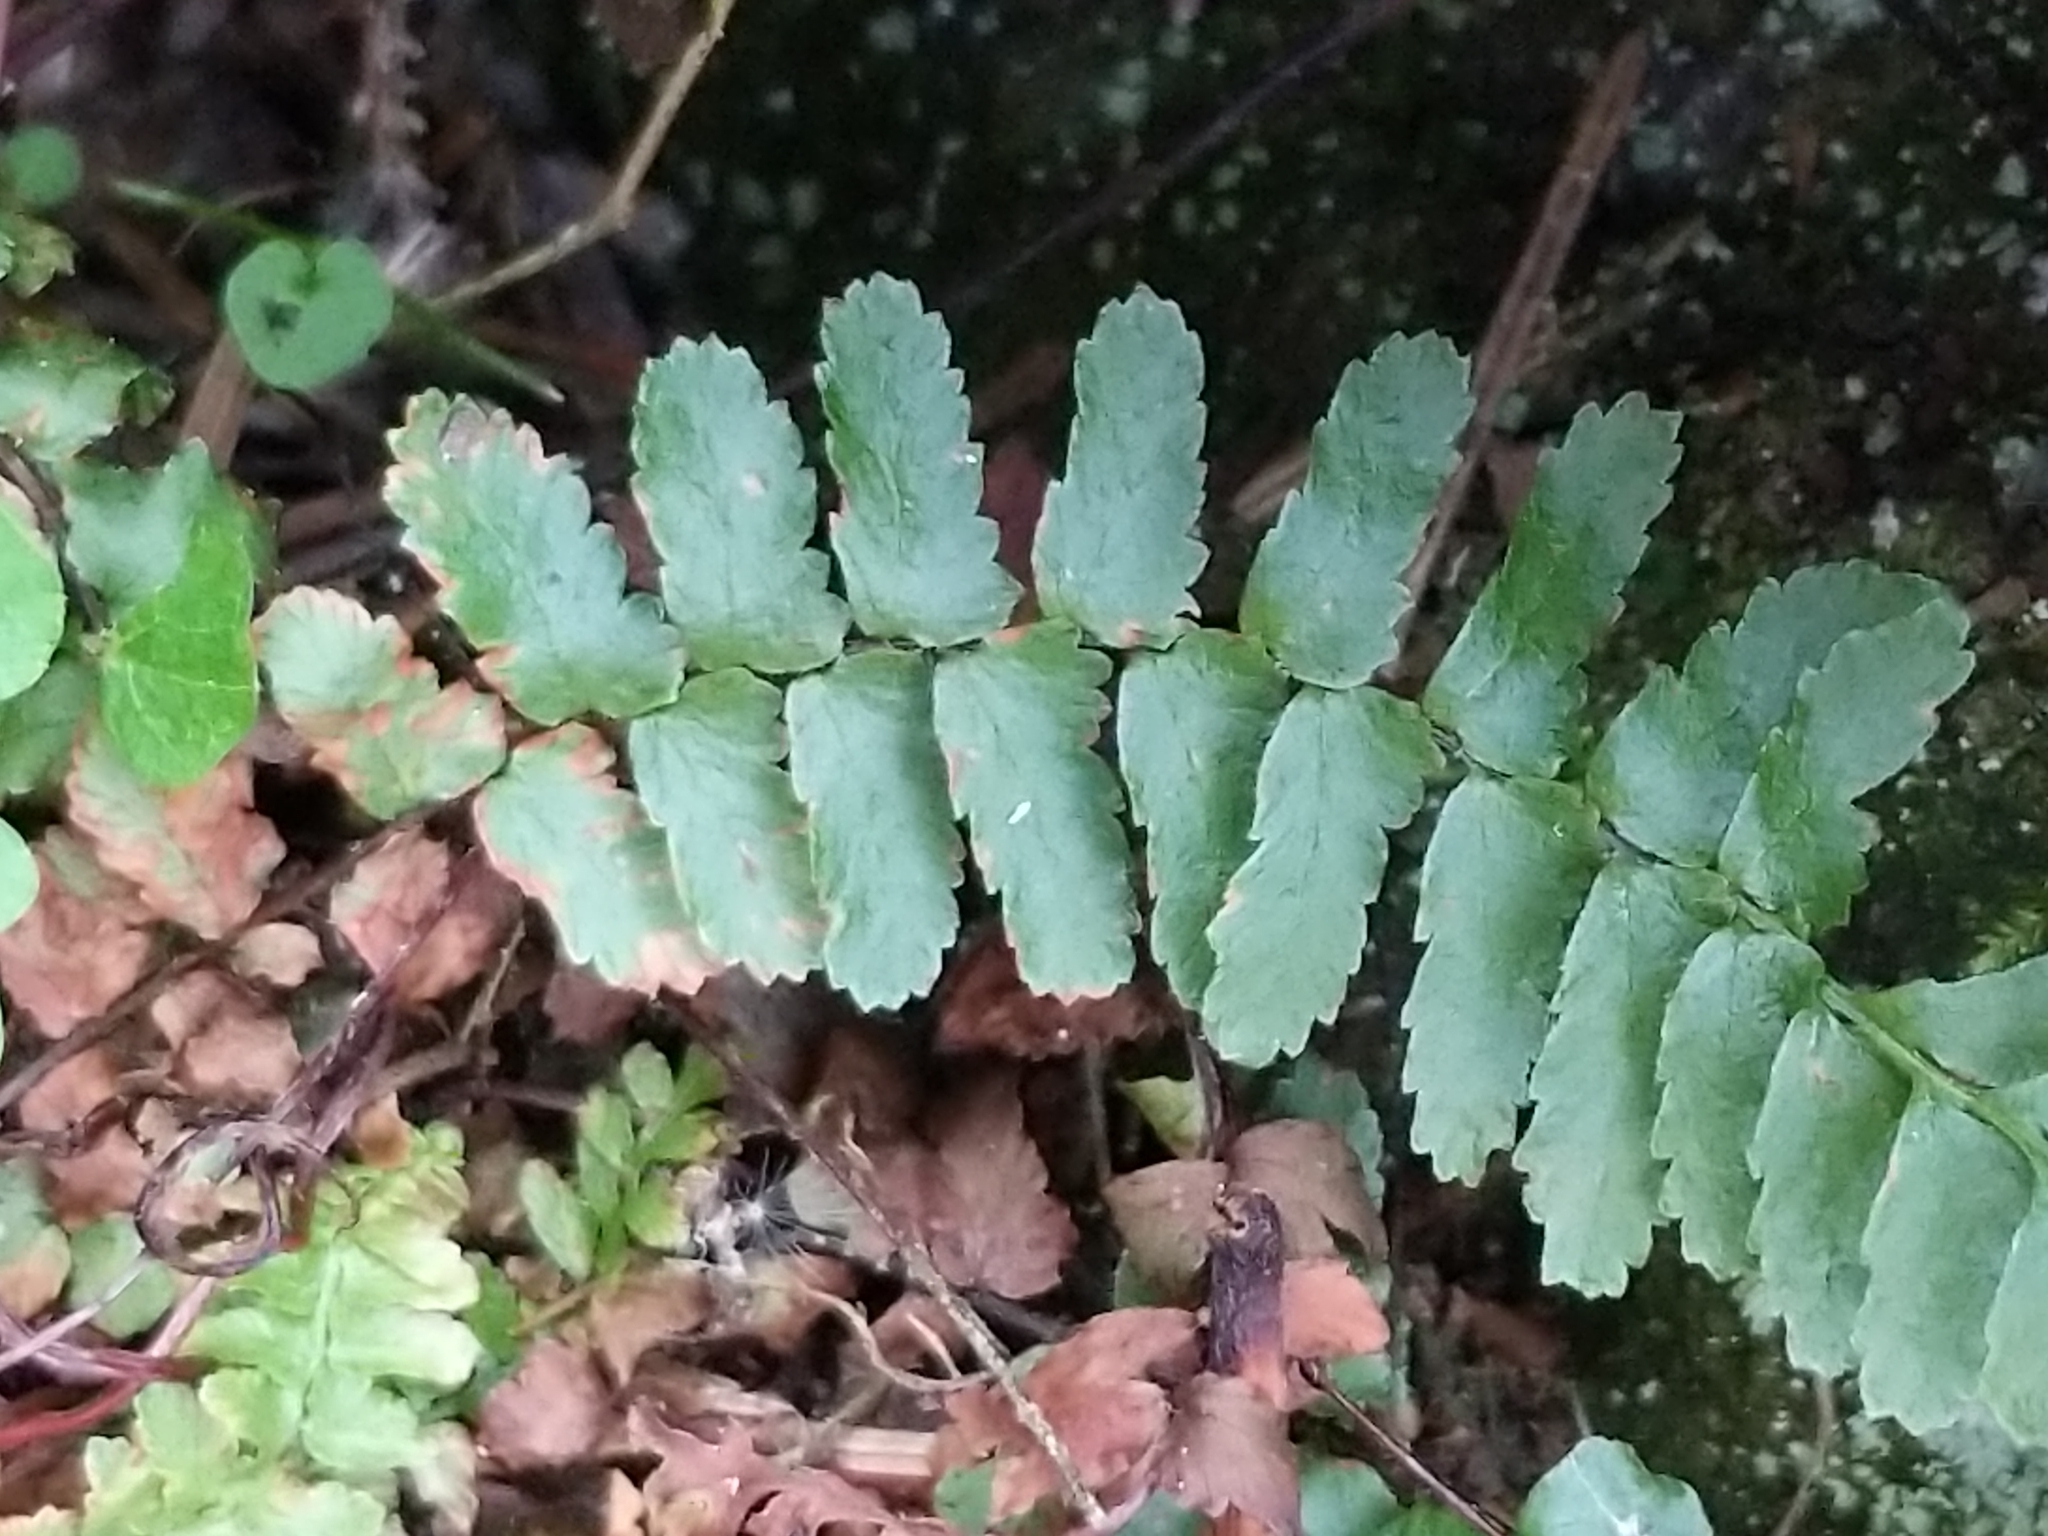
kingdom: Plantae
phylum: Tracheophyta
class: Polypodiopsida
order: Polypodiales
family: Aspleniaceae
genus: Asplenium
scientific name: Asplenium platyneuron
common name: Ebony spleenwort
